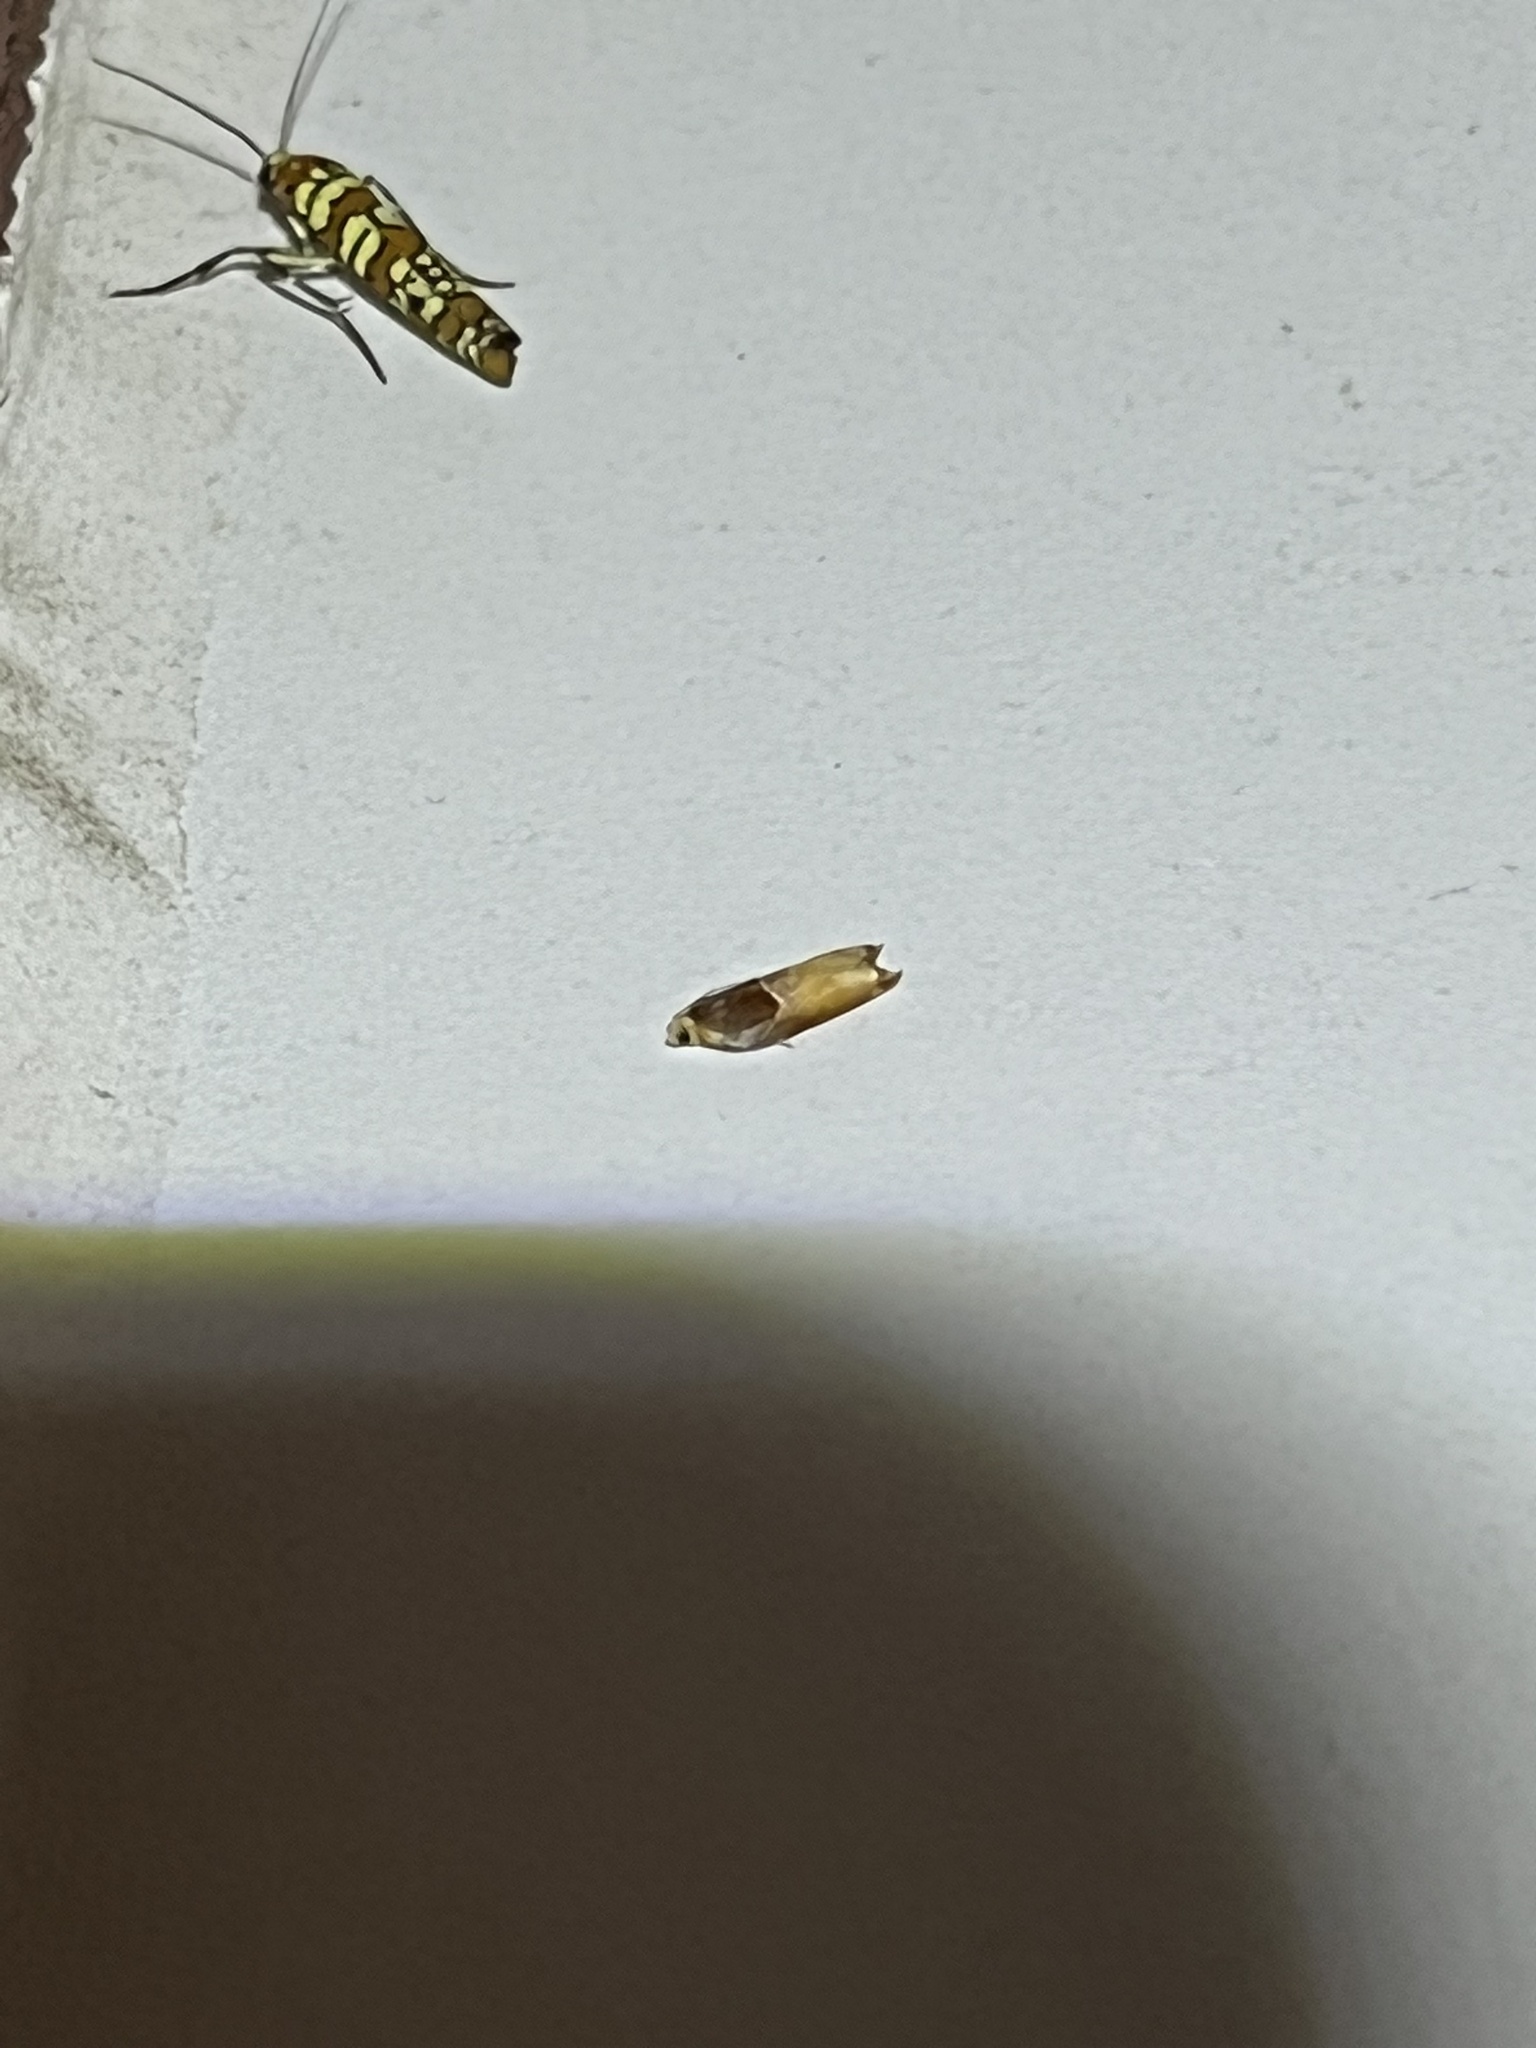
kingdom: Animalia
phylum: Arthropoda
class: Insecta
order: Lepidoptera
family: Tortricidae
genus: Ancylis
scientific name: Ancylis divisana
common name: Two-toned ancylis moth
